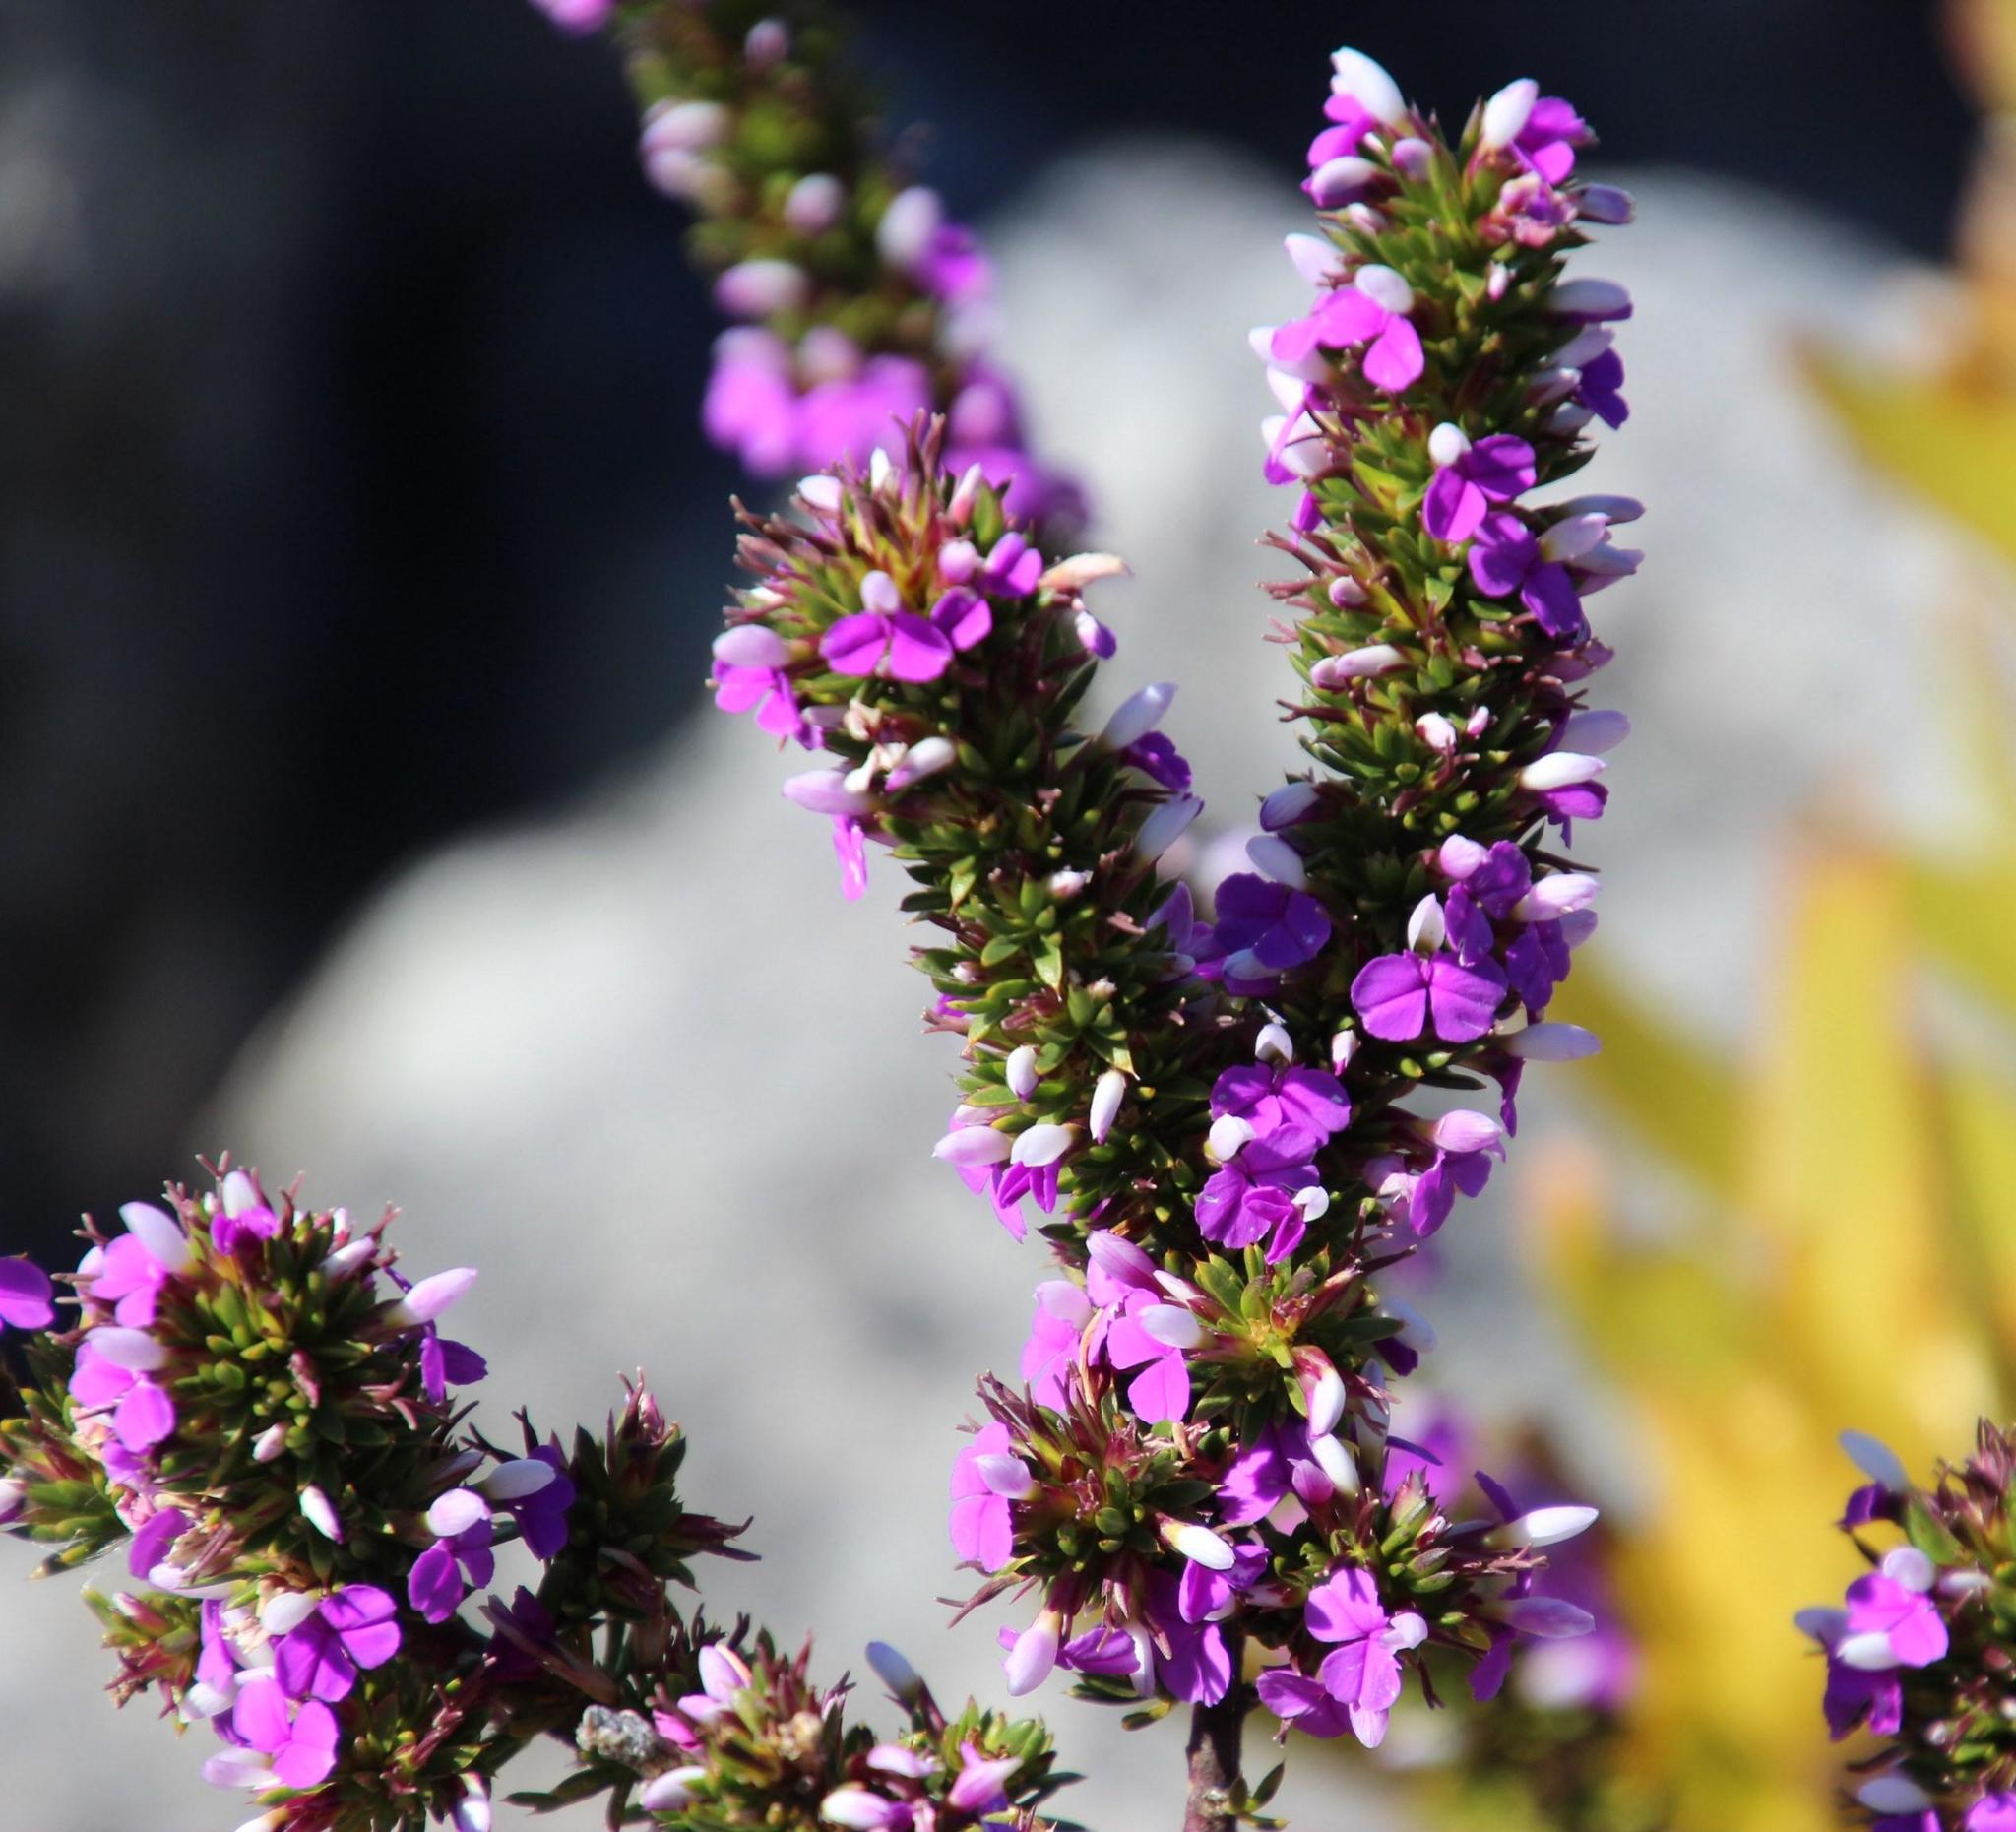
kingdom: Plantae
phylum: Tracheophyta
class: Magnoliopsida
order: Fabales
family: Polygalaceae
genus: Muraltia
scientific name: Muraltia heisteria
